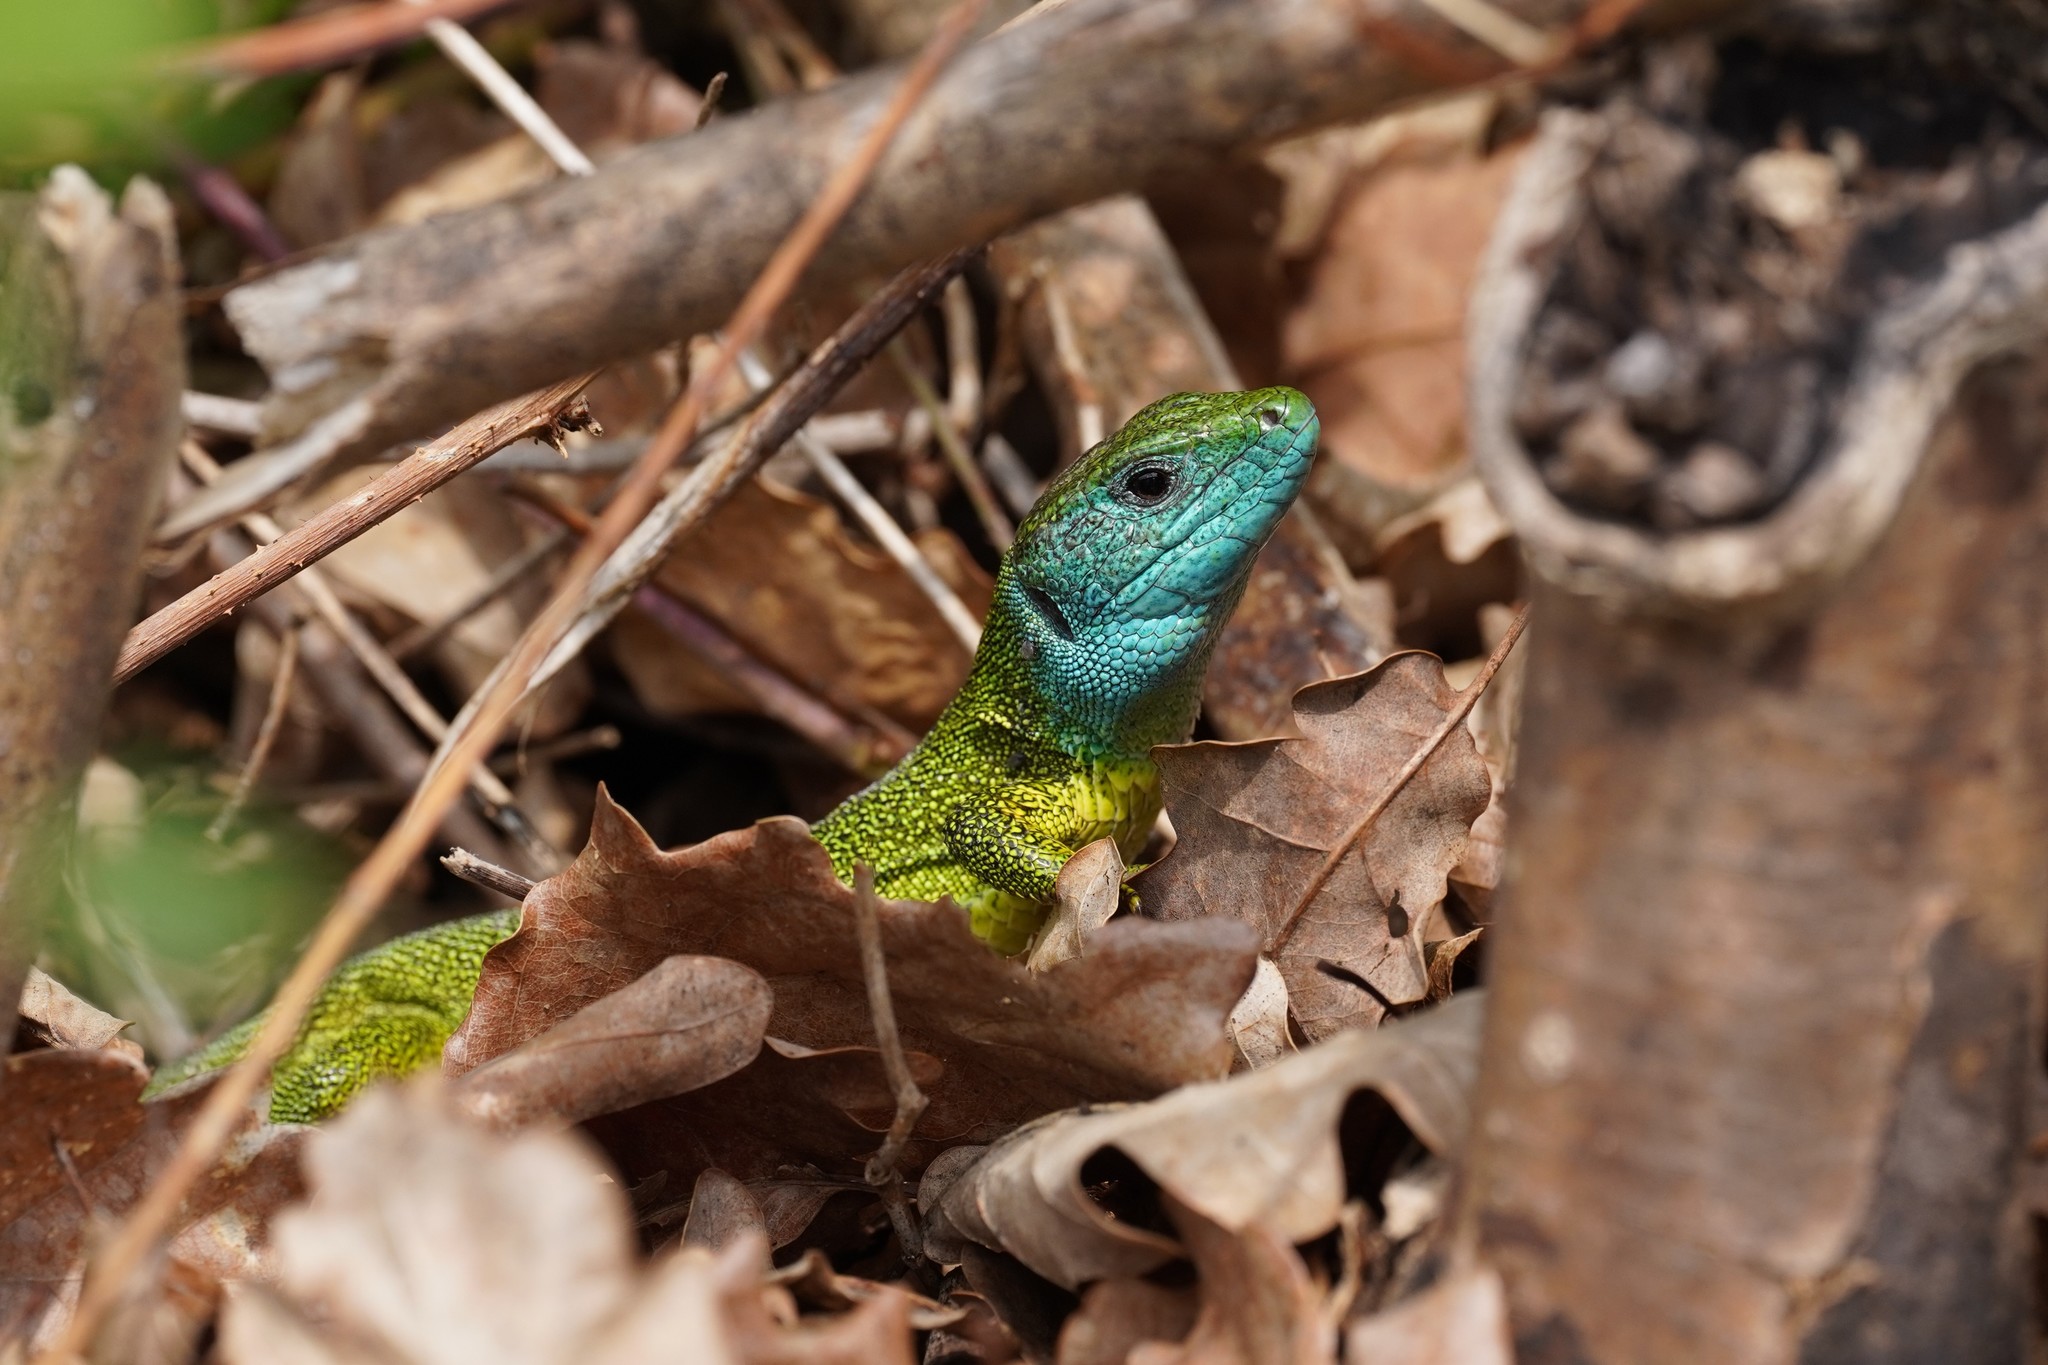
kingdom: Animalia
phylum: Chordata
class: Squamata
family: Lacertidae
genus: Lacerta
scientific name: Lacerta viridis
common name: European green lizard
